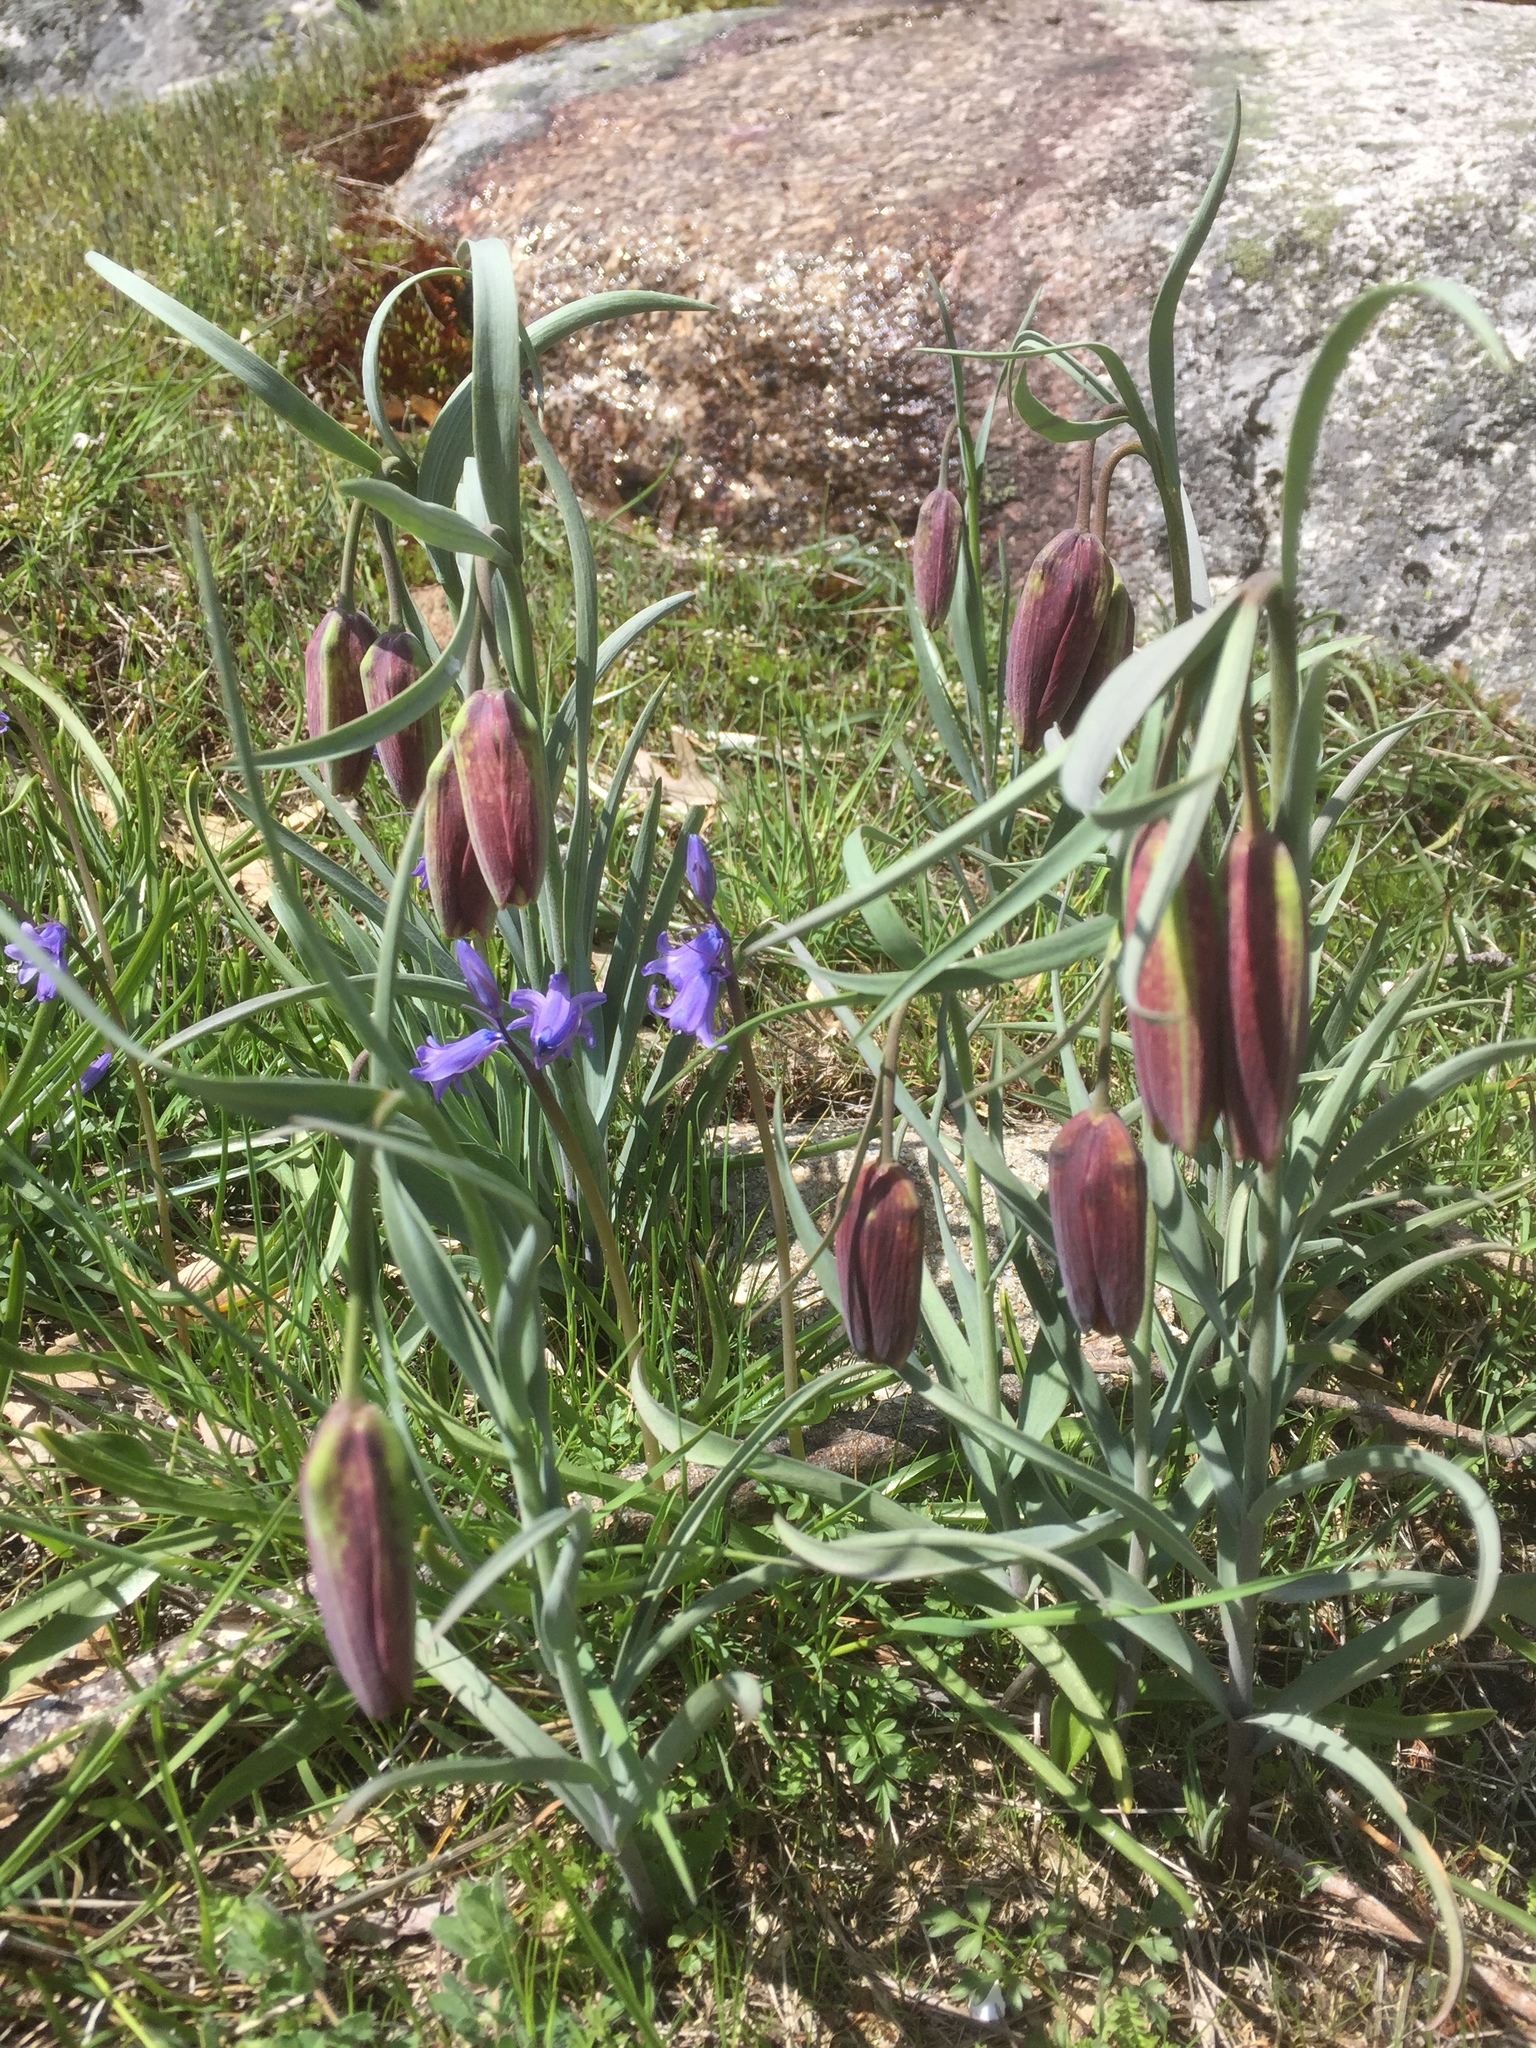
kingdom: Plantae
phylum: Tracheophyta
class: Liliopsida
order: Liliales
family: Liliaceae
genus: Fritillaria
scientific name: Fritillaria lusitanica
